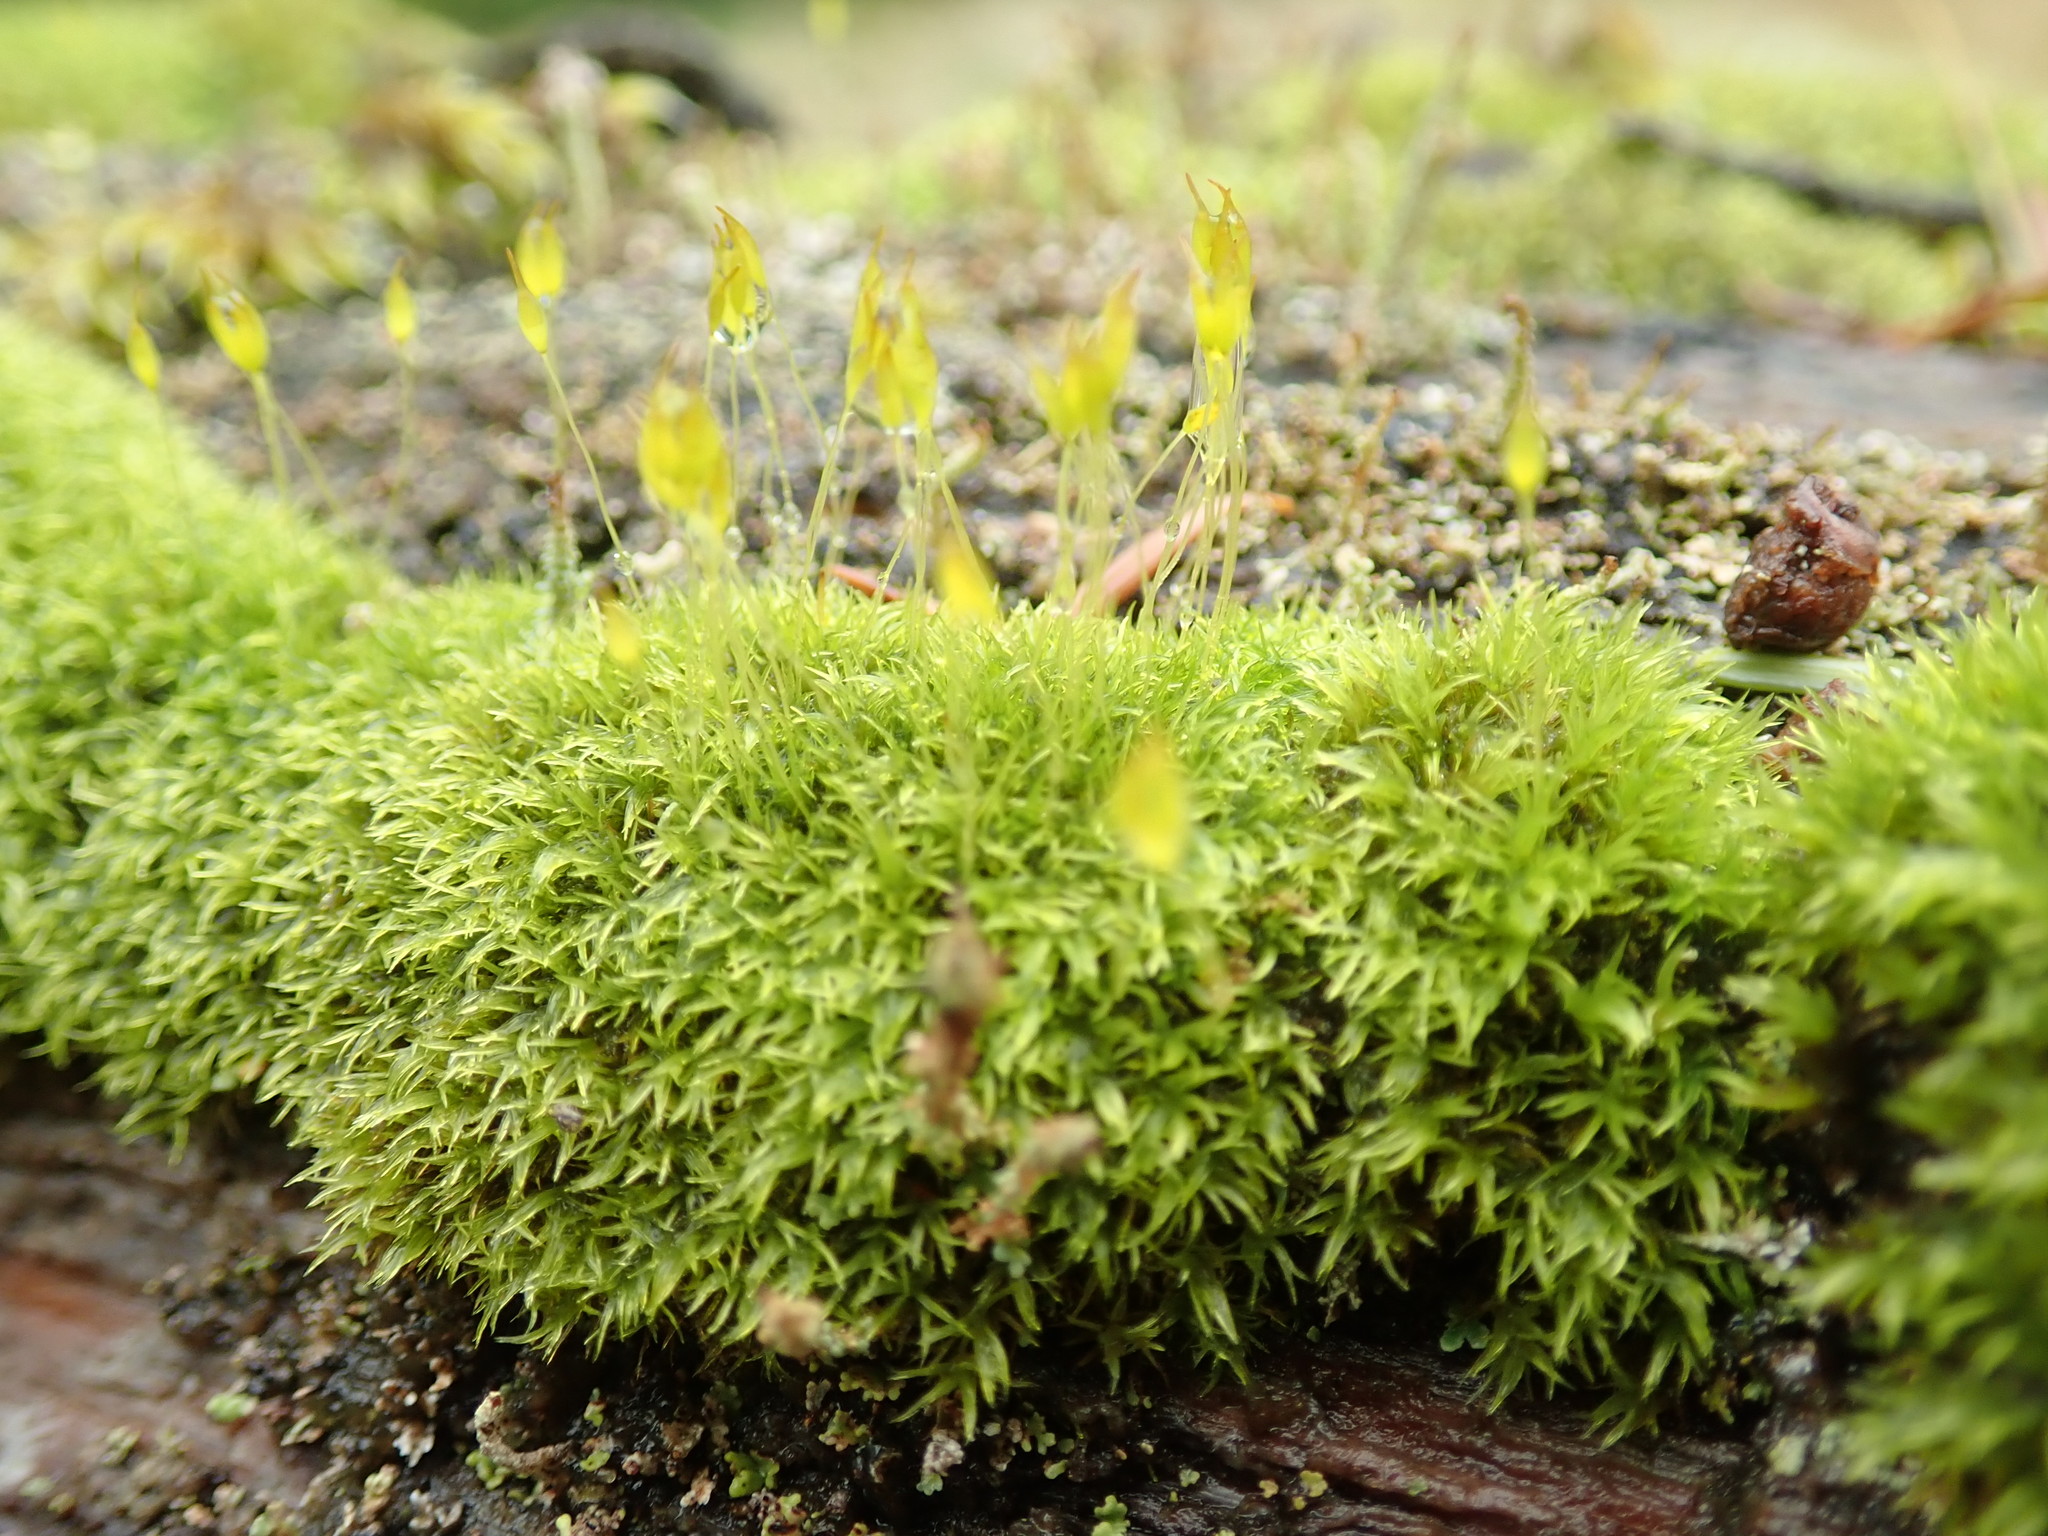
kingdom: Plantae
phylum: Bryophyta
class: Bryopsida
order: Dicranales
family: Rhabdoweisiaceae
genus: Dicranoweisia
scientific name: Dicranoweisia cirrata
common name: Common pincushion
